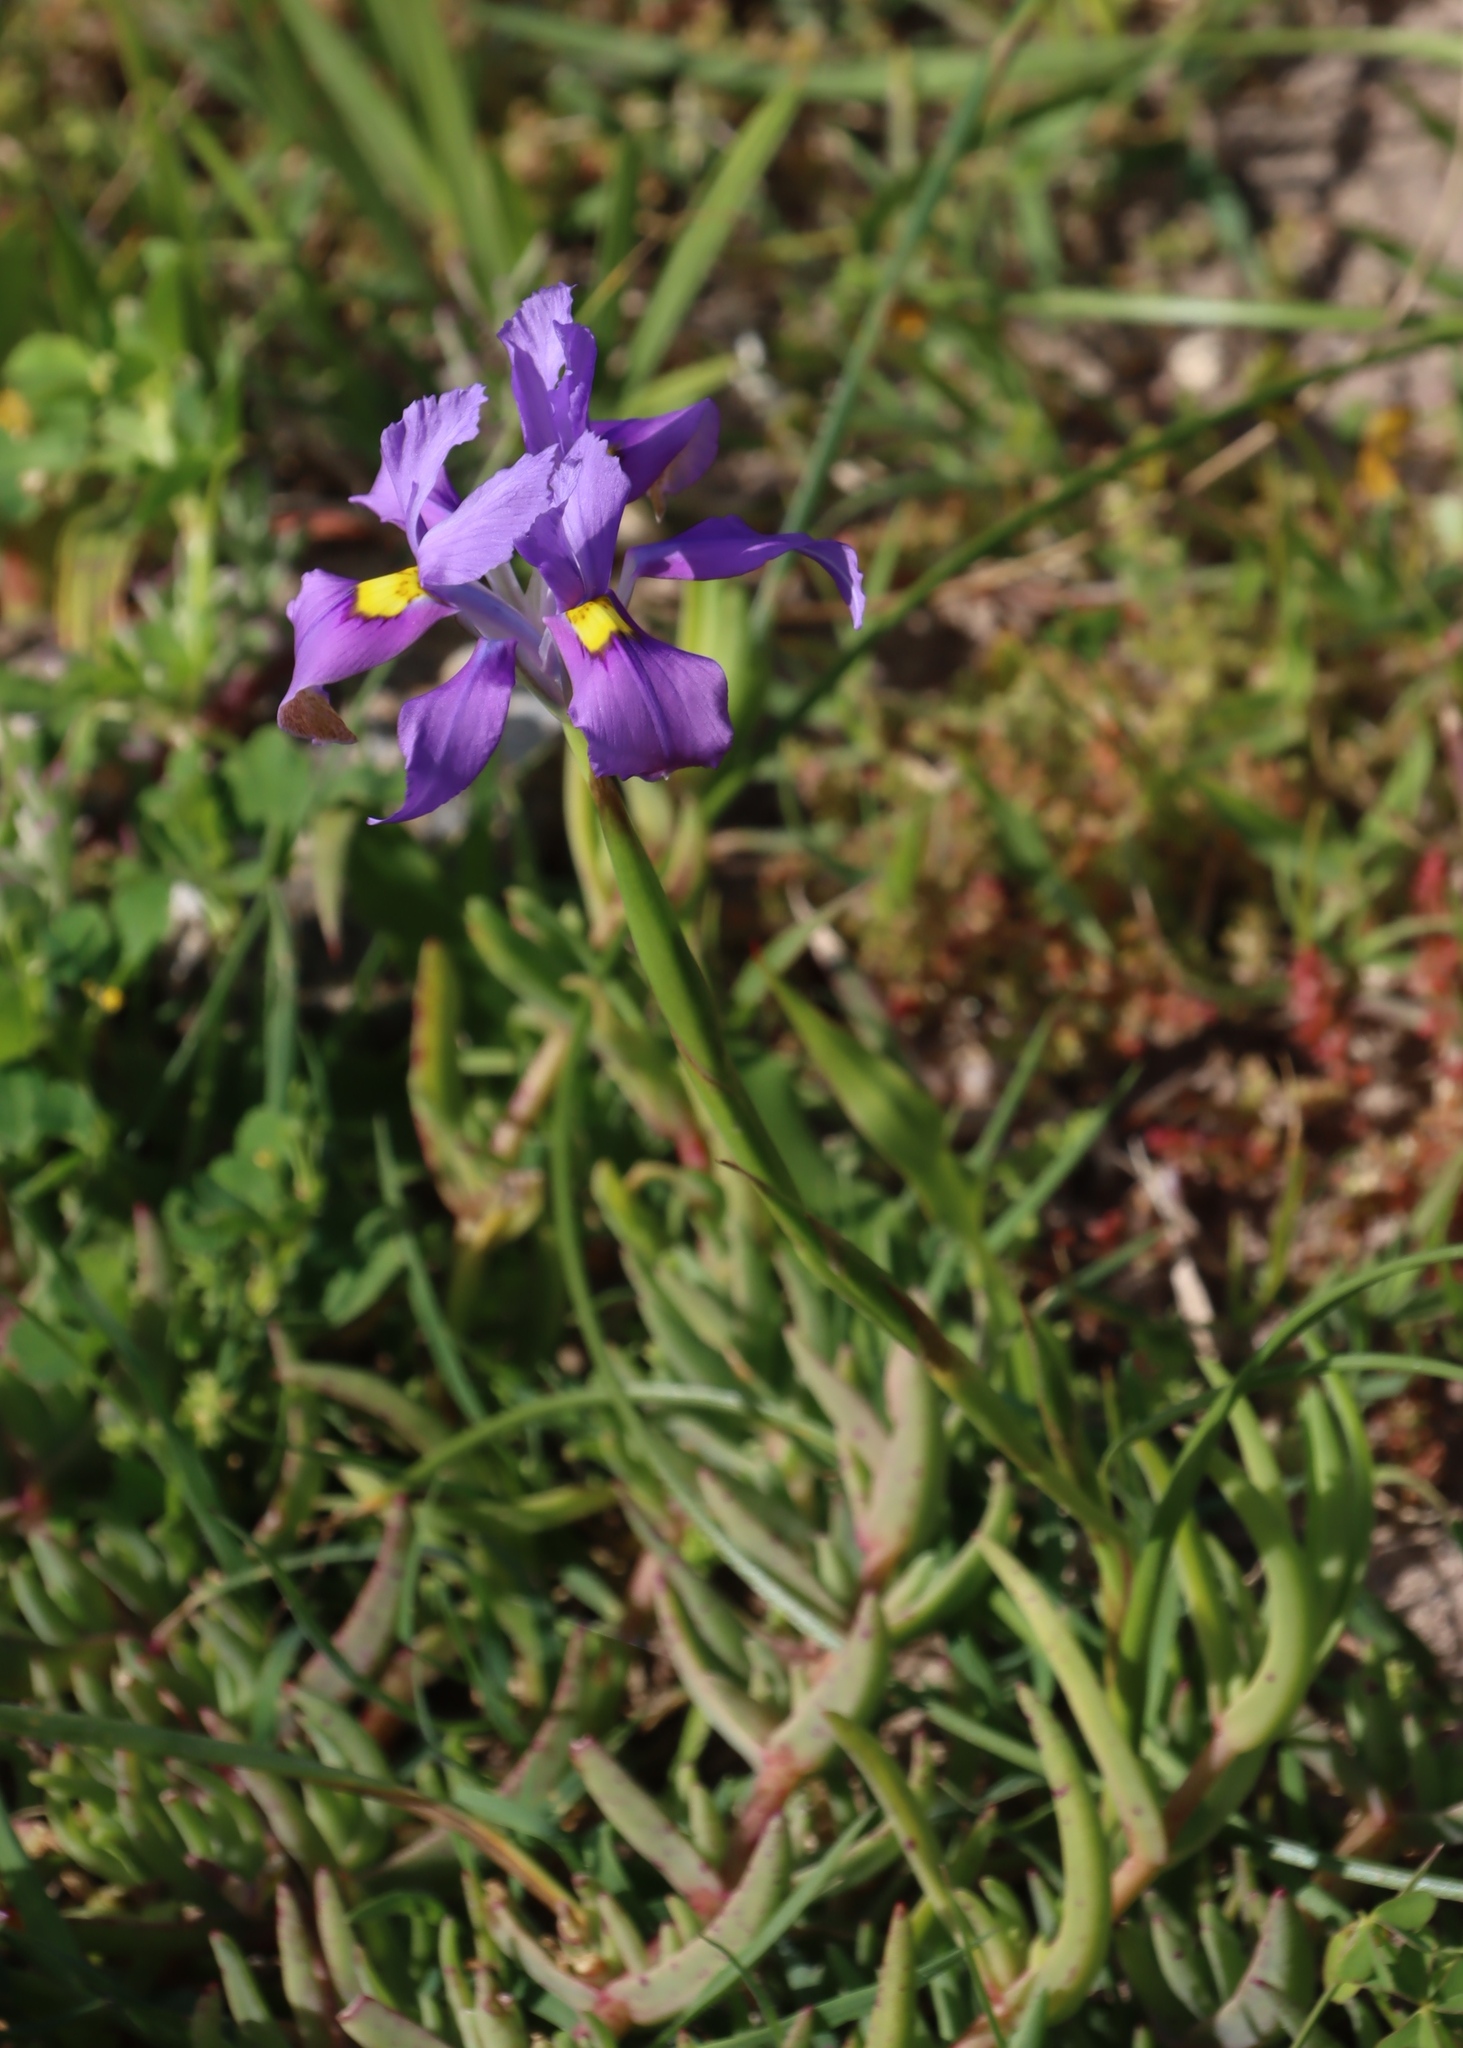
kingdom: Plantae
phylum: Tracheophyta
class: Liliopsida
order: Asparagales
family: Iridaceae
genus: Moraea
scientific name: Moraea fugax
